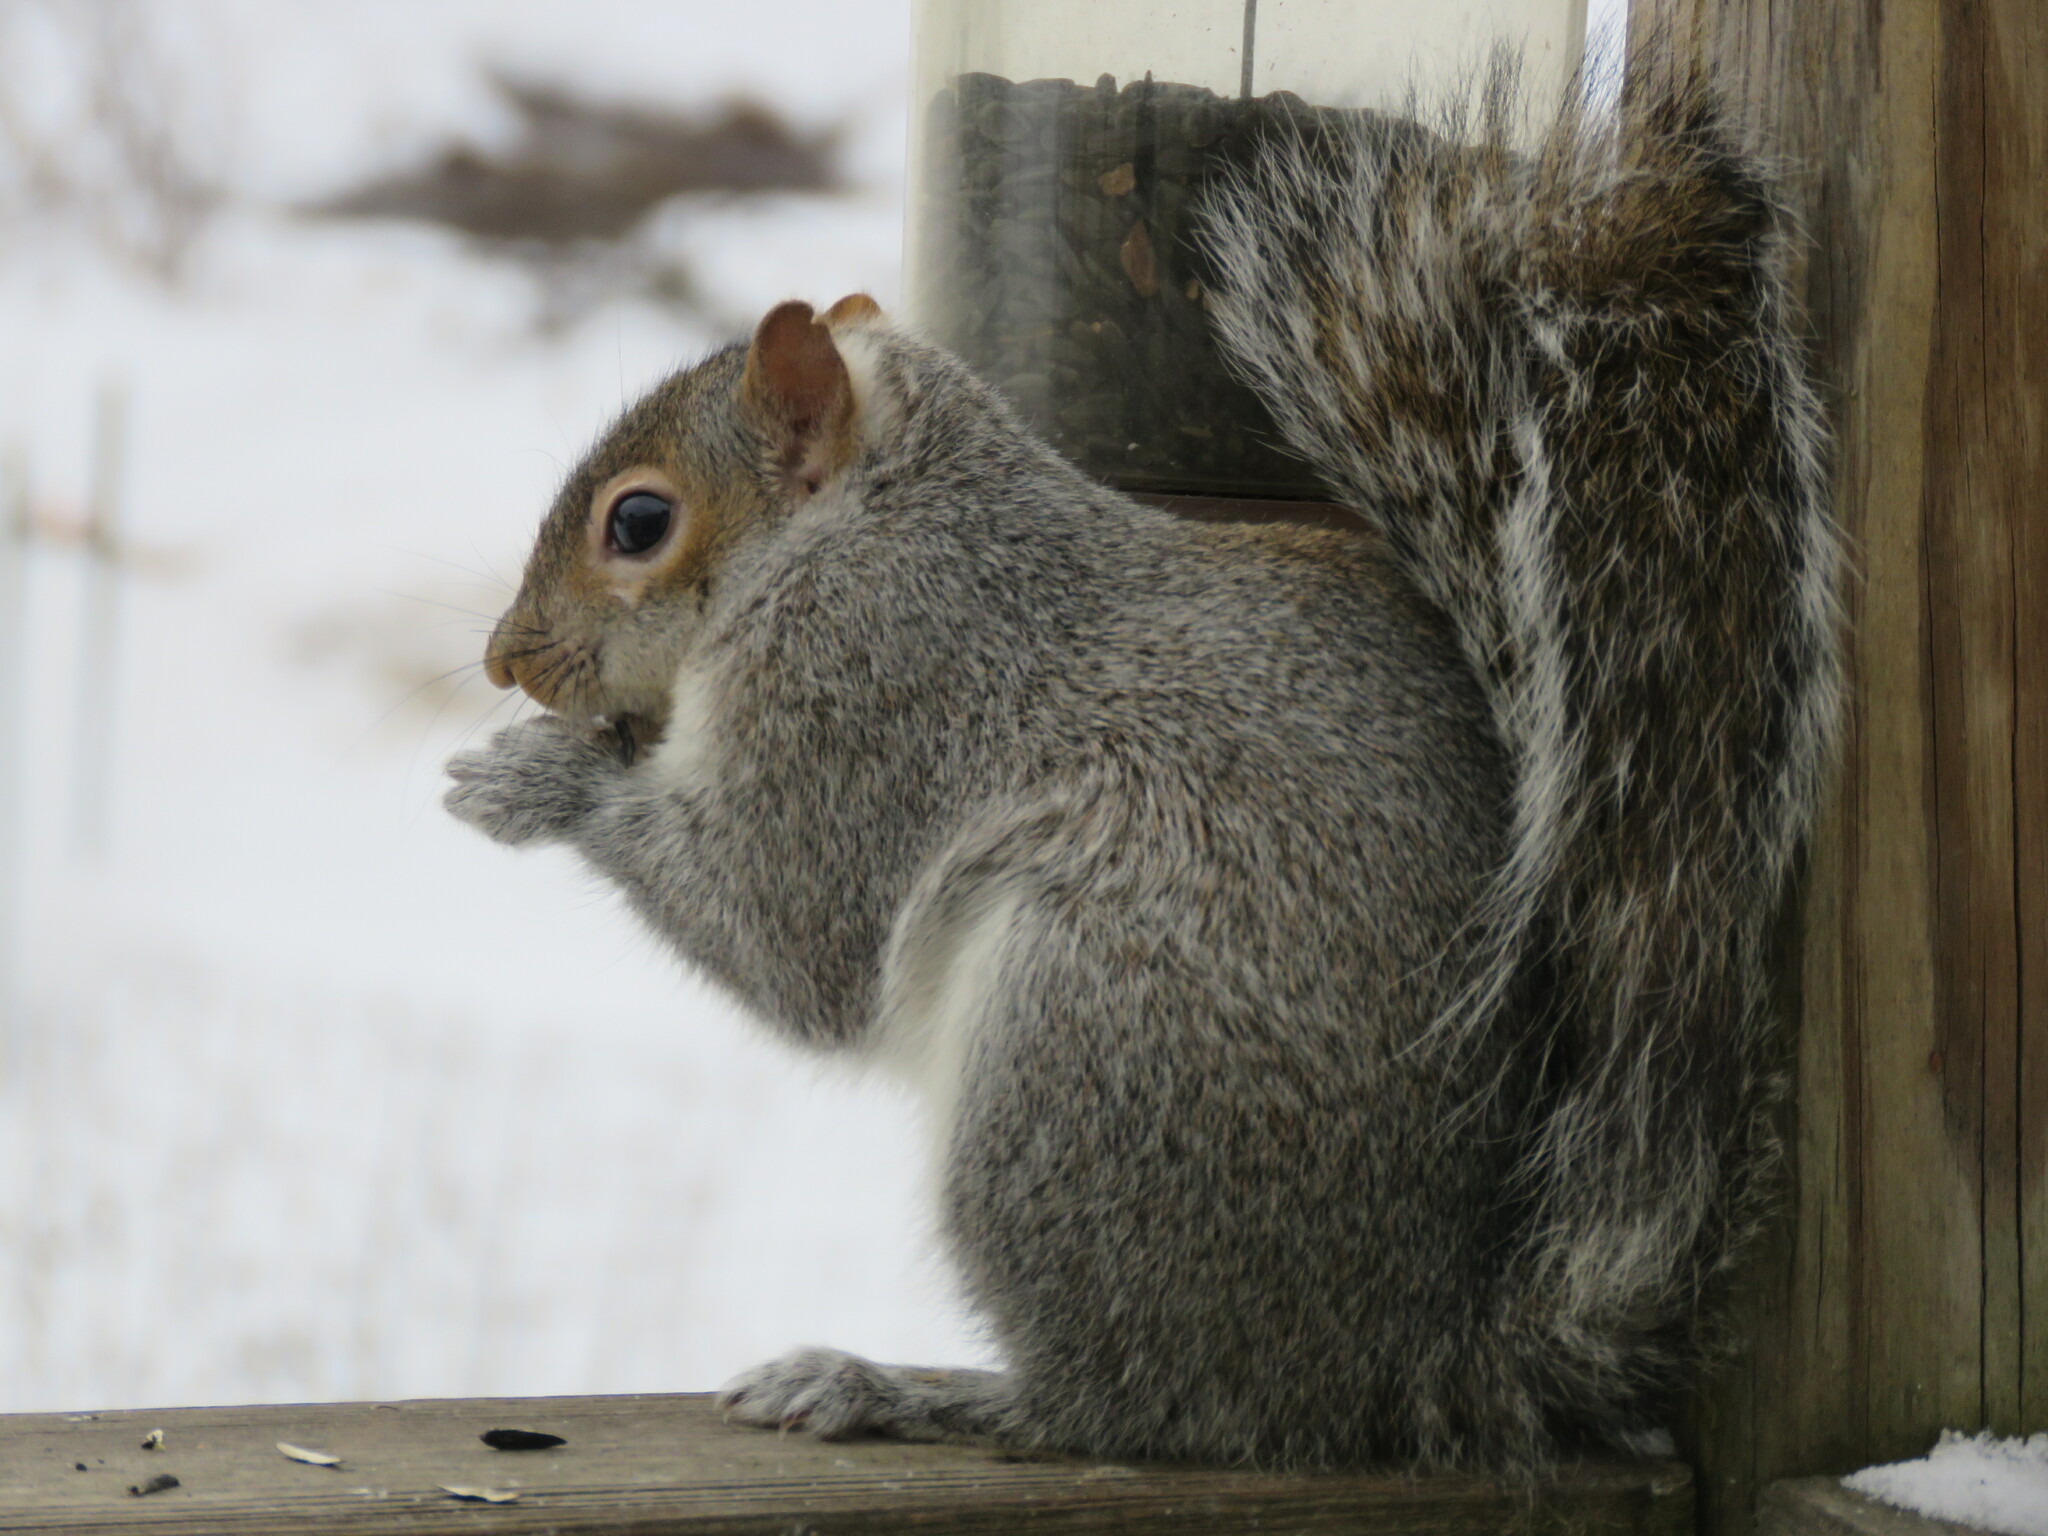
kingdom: Animalia
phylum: Chordata
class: Mammalia
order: Rodentia
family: Sciuridae
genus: Sciurus
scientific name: Sciurus carolinensis
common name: Eastern gray squirrel
